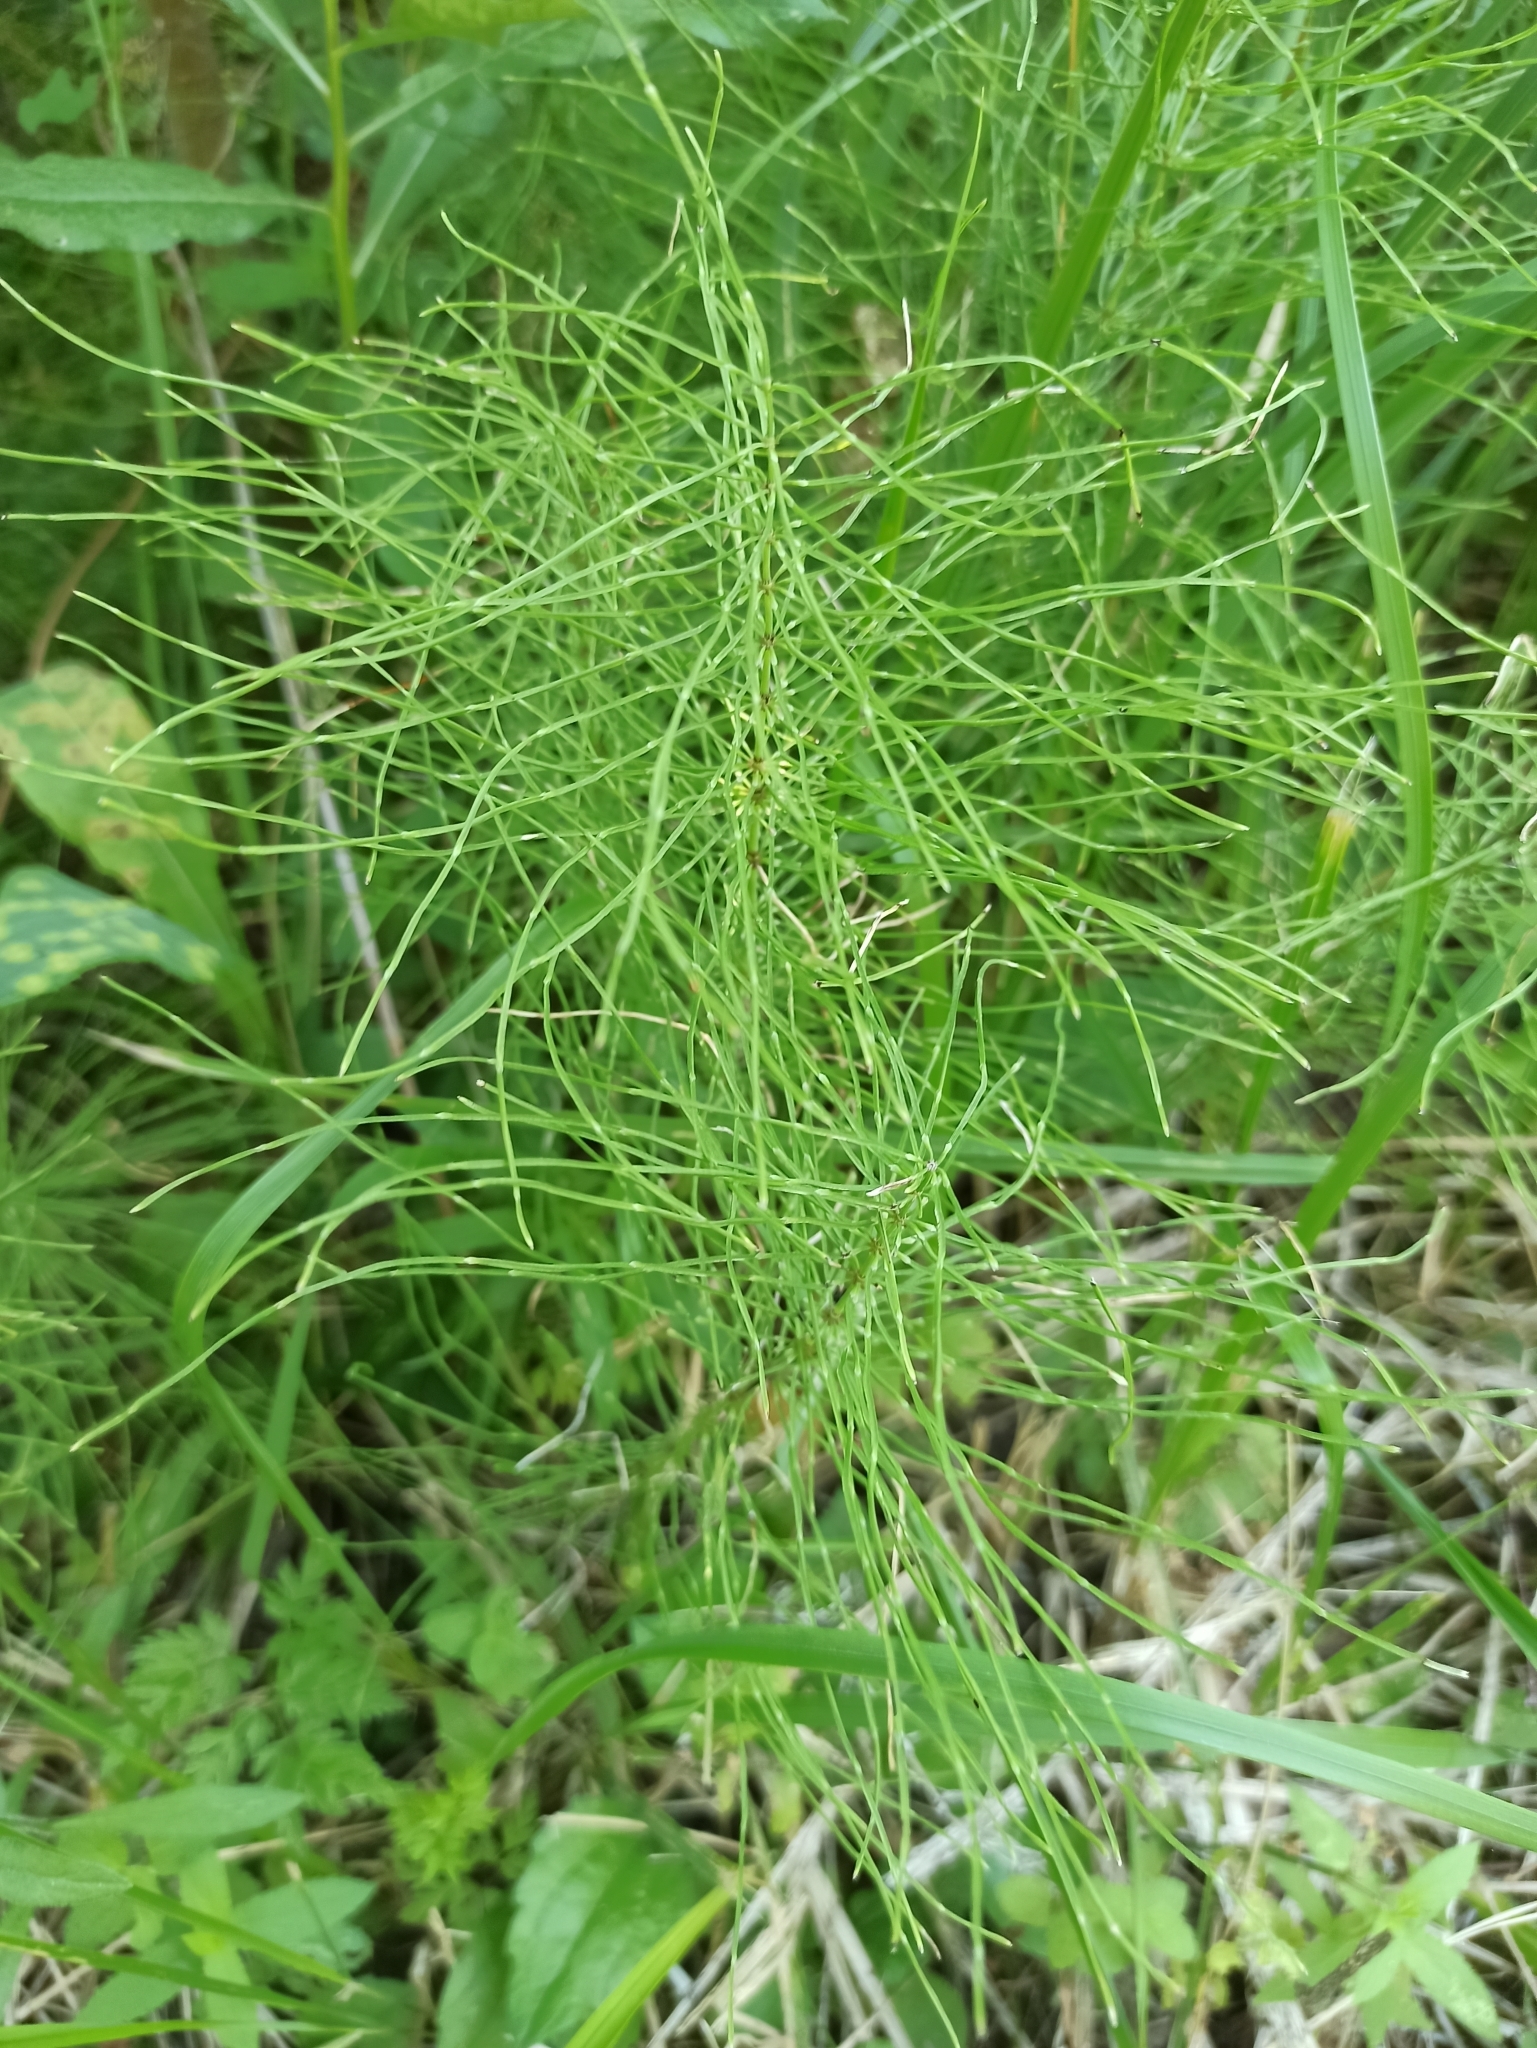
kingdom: Plantae
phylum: Tracheophyta
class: Polypodiopsida
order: Equisetales
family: Equisetaceae
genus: Equisetum
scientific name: Equisetum pratense
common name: Meadow horsetail
